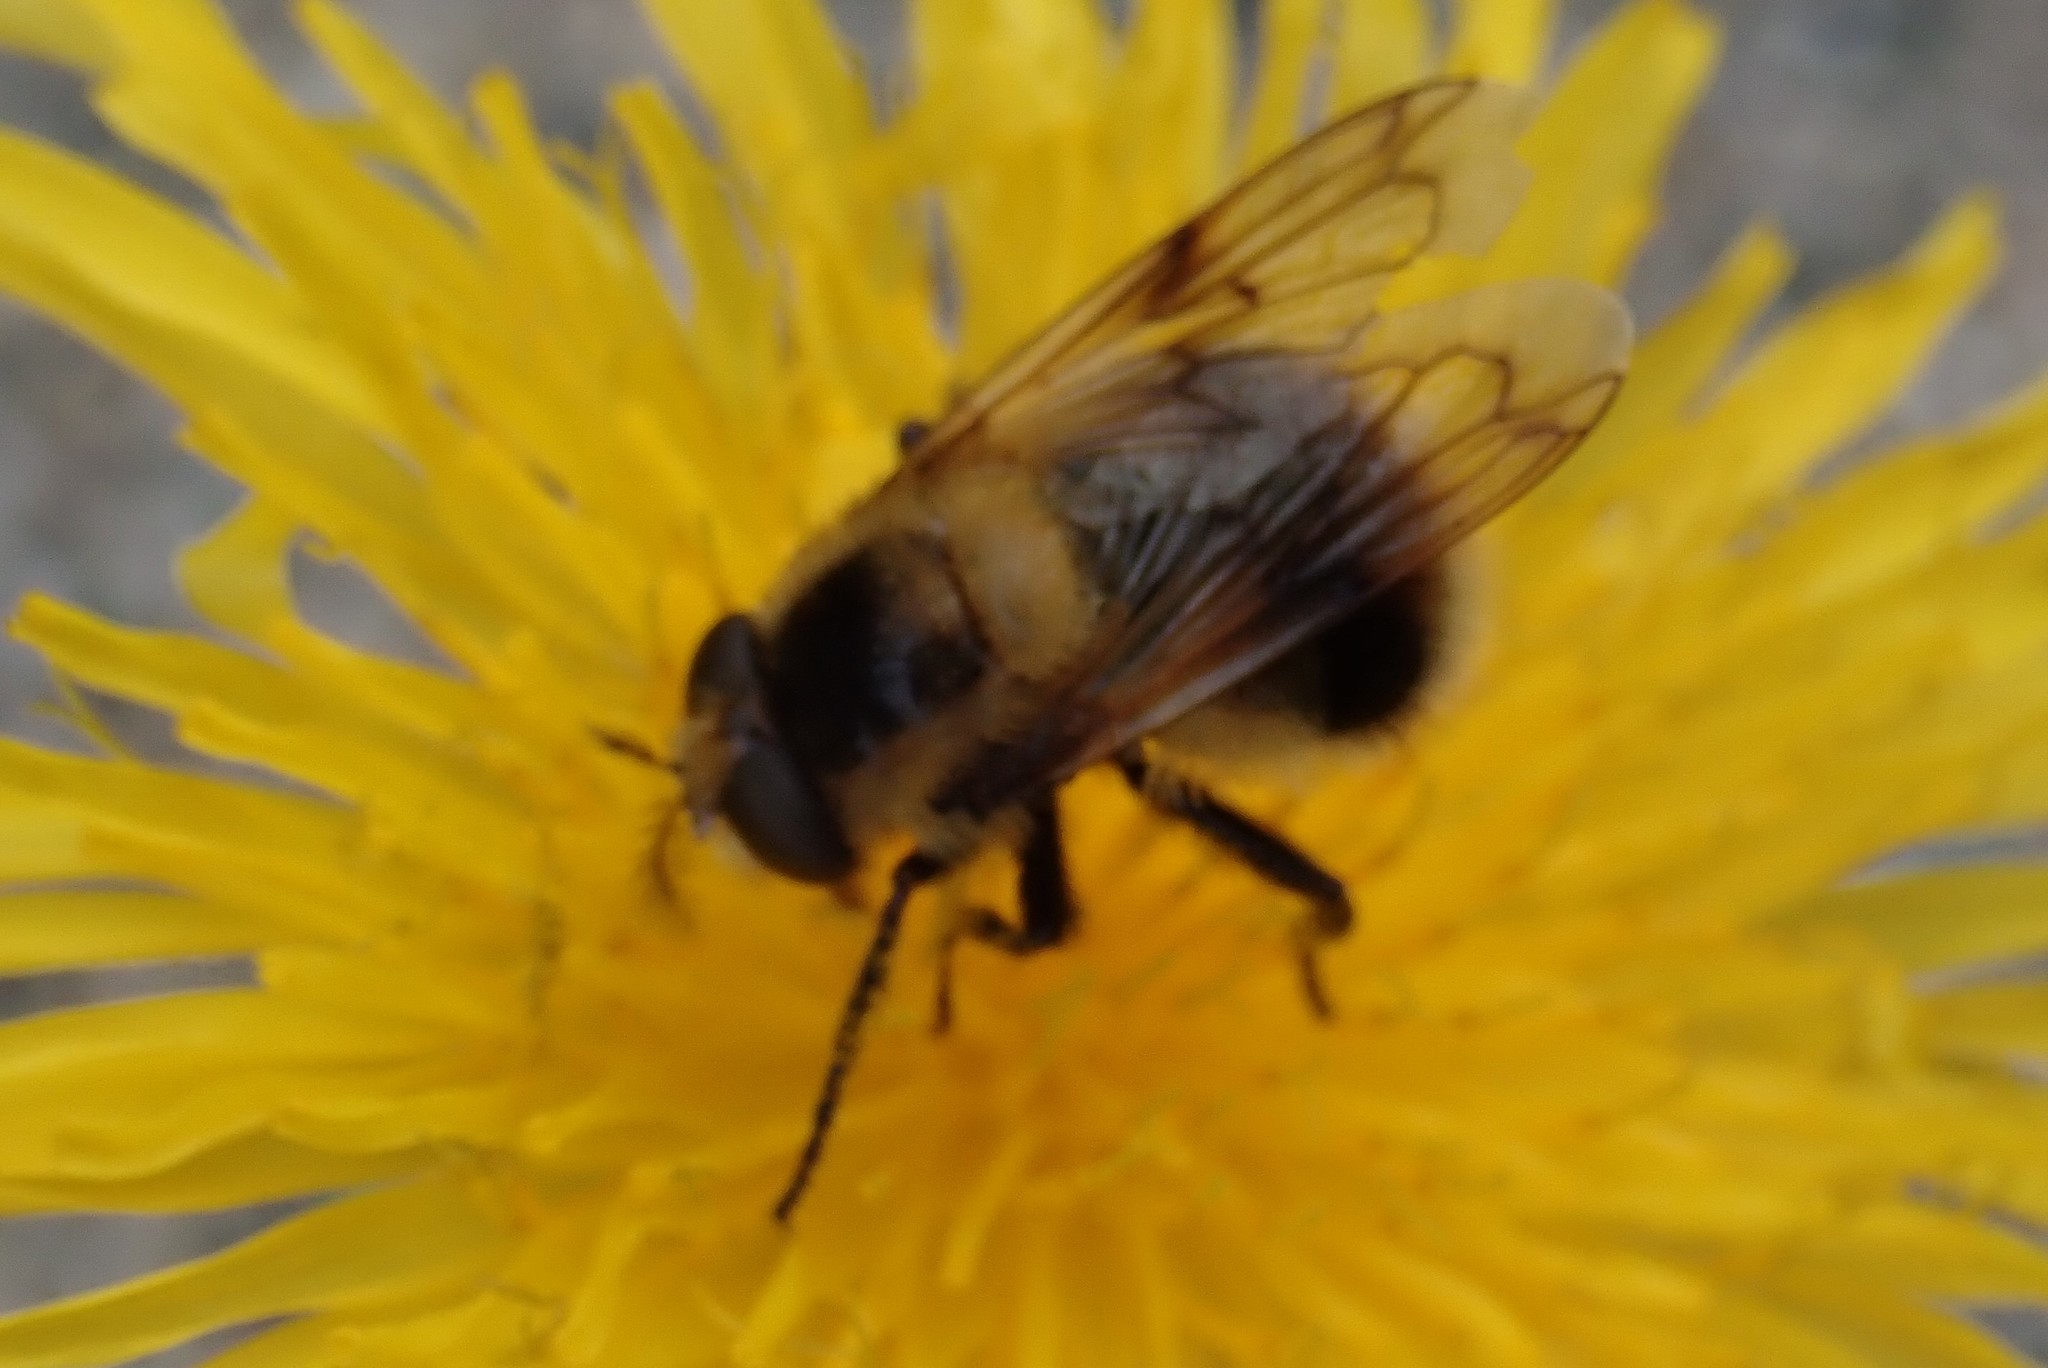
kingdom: Animalia
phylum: Arthropoda
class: Insecta
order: Diptera
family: Syrphidae
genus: Volucella
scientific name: Volucella facialis
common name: Yellow-faced swiftwing
